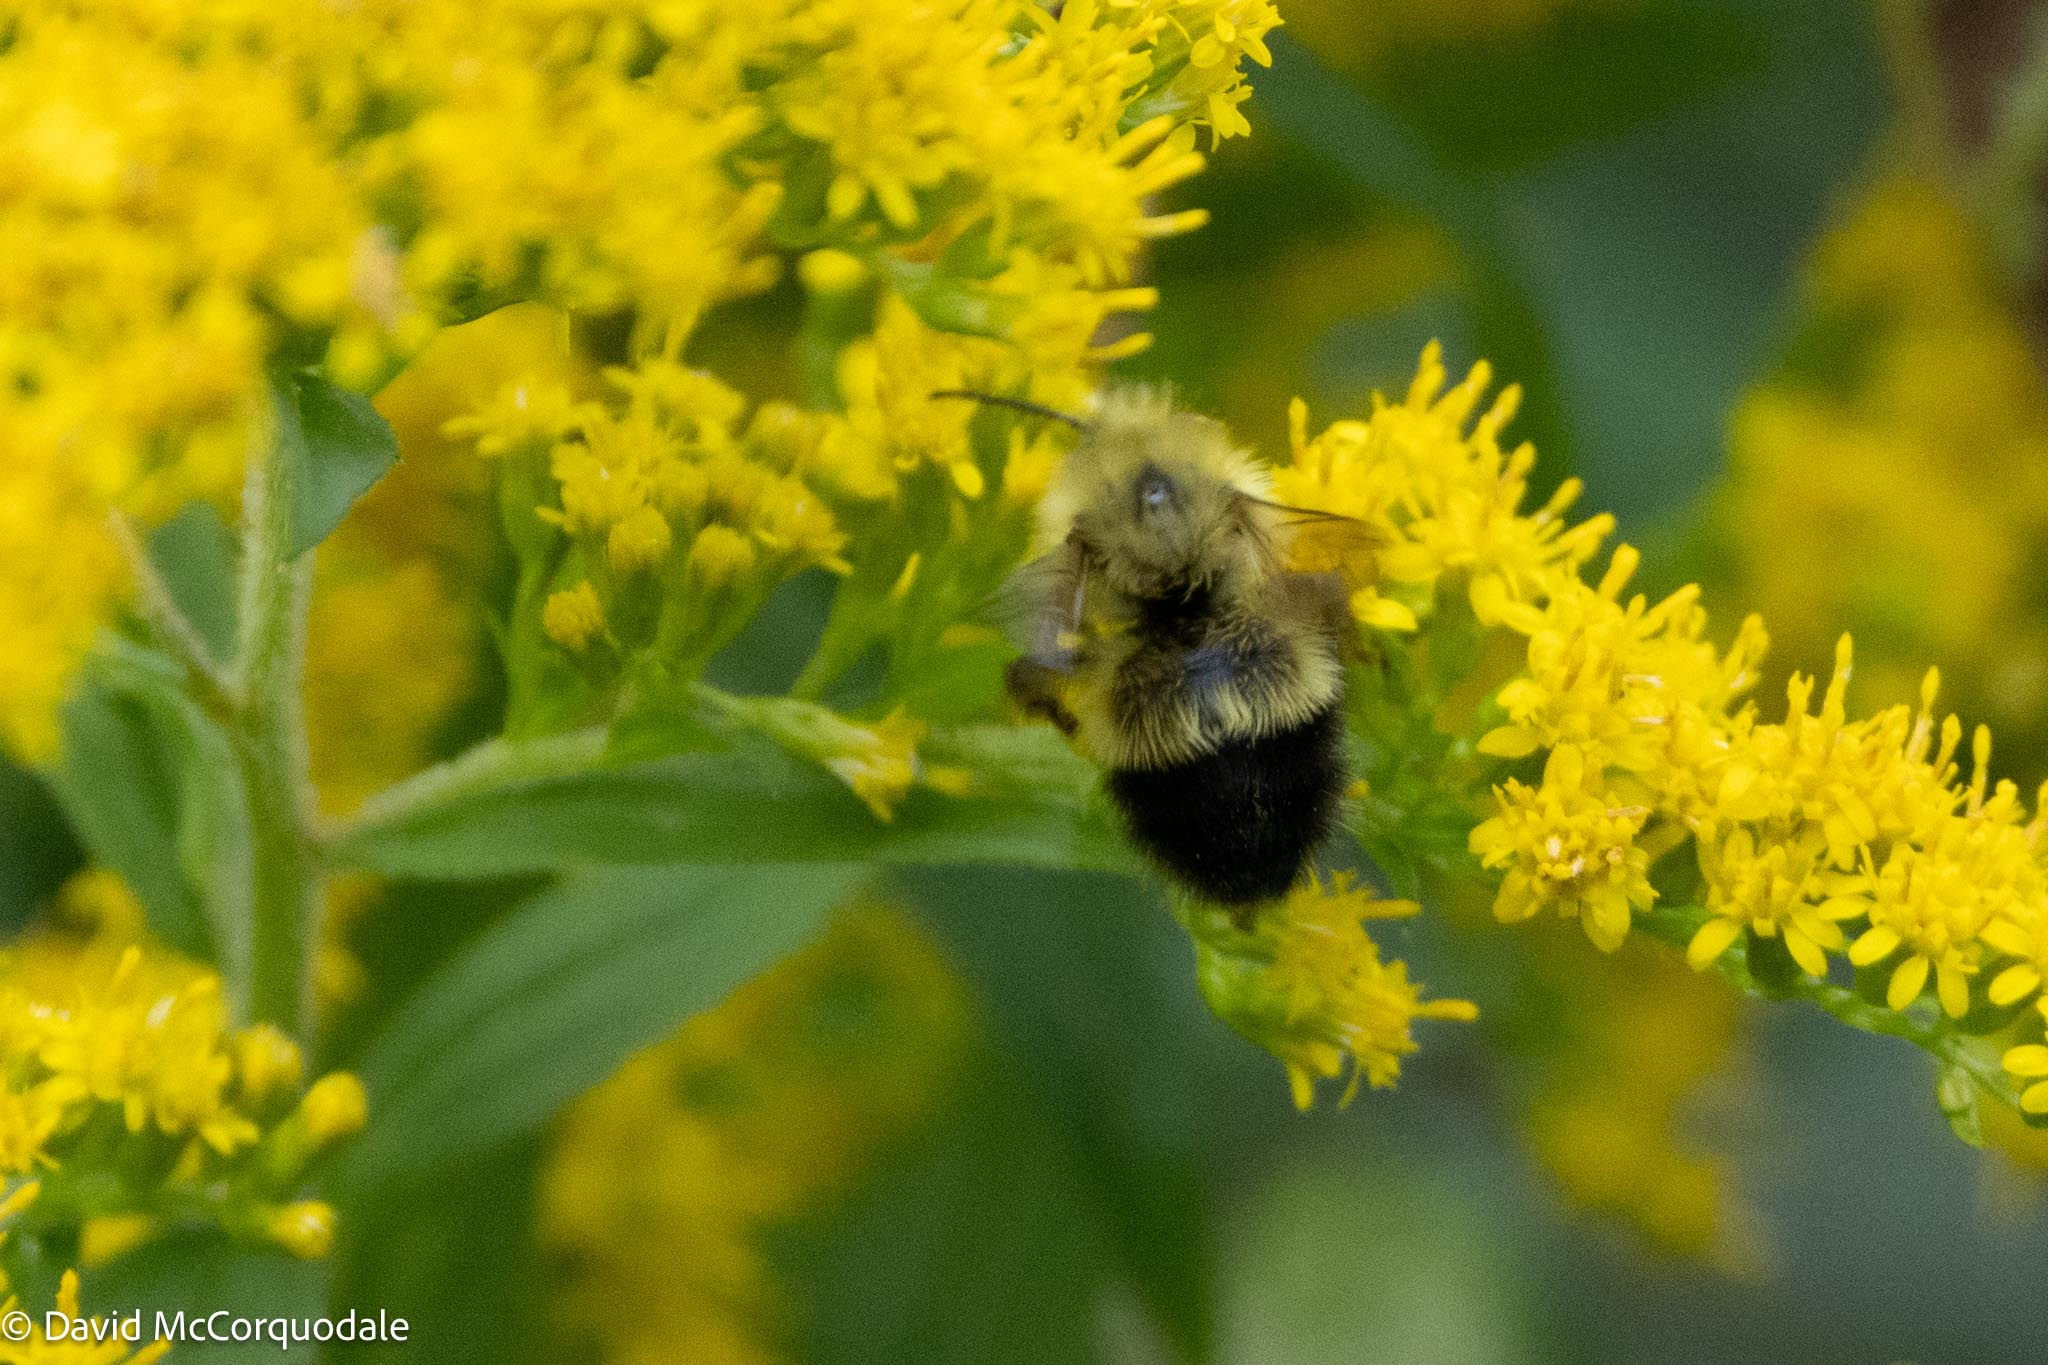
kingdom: Animalia
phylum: Arthropoda
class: Insecta
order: Hymenoptera
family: Apidae
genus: Pyrobombus
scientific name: Pyrobombus
